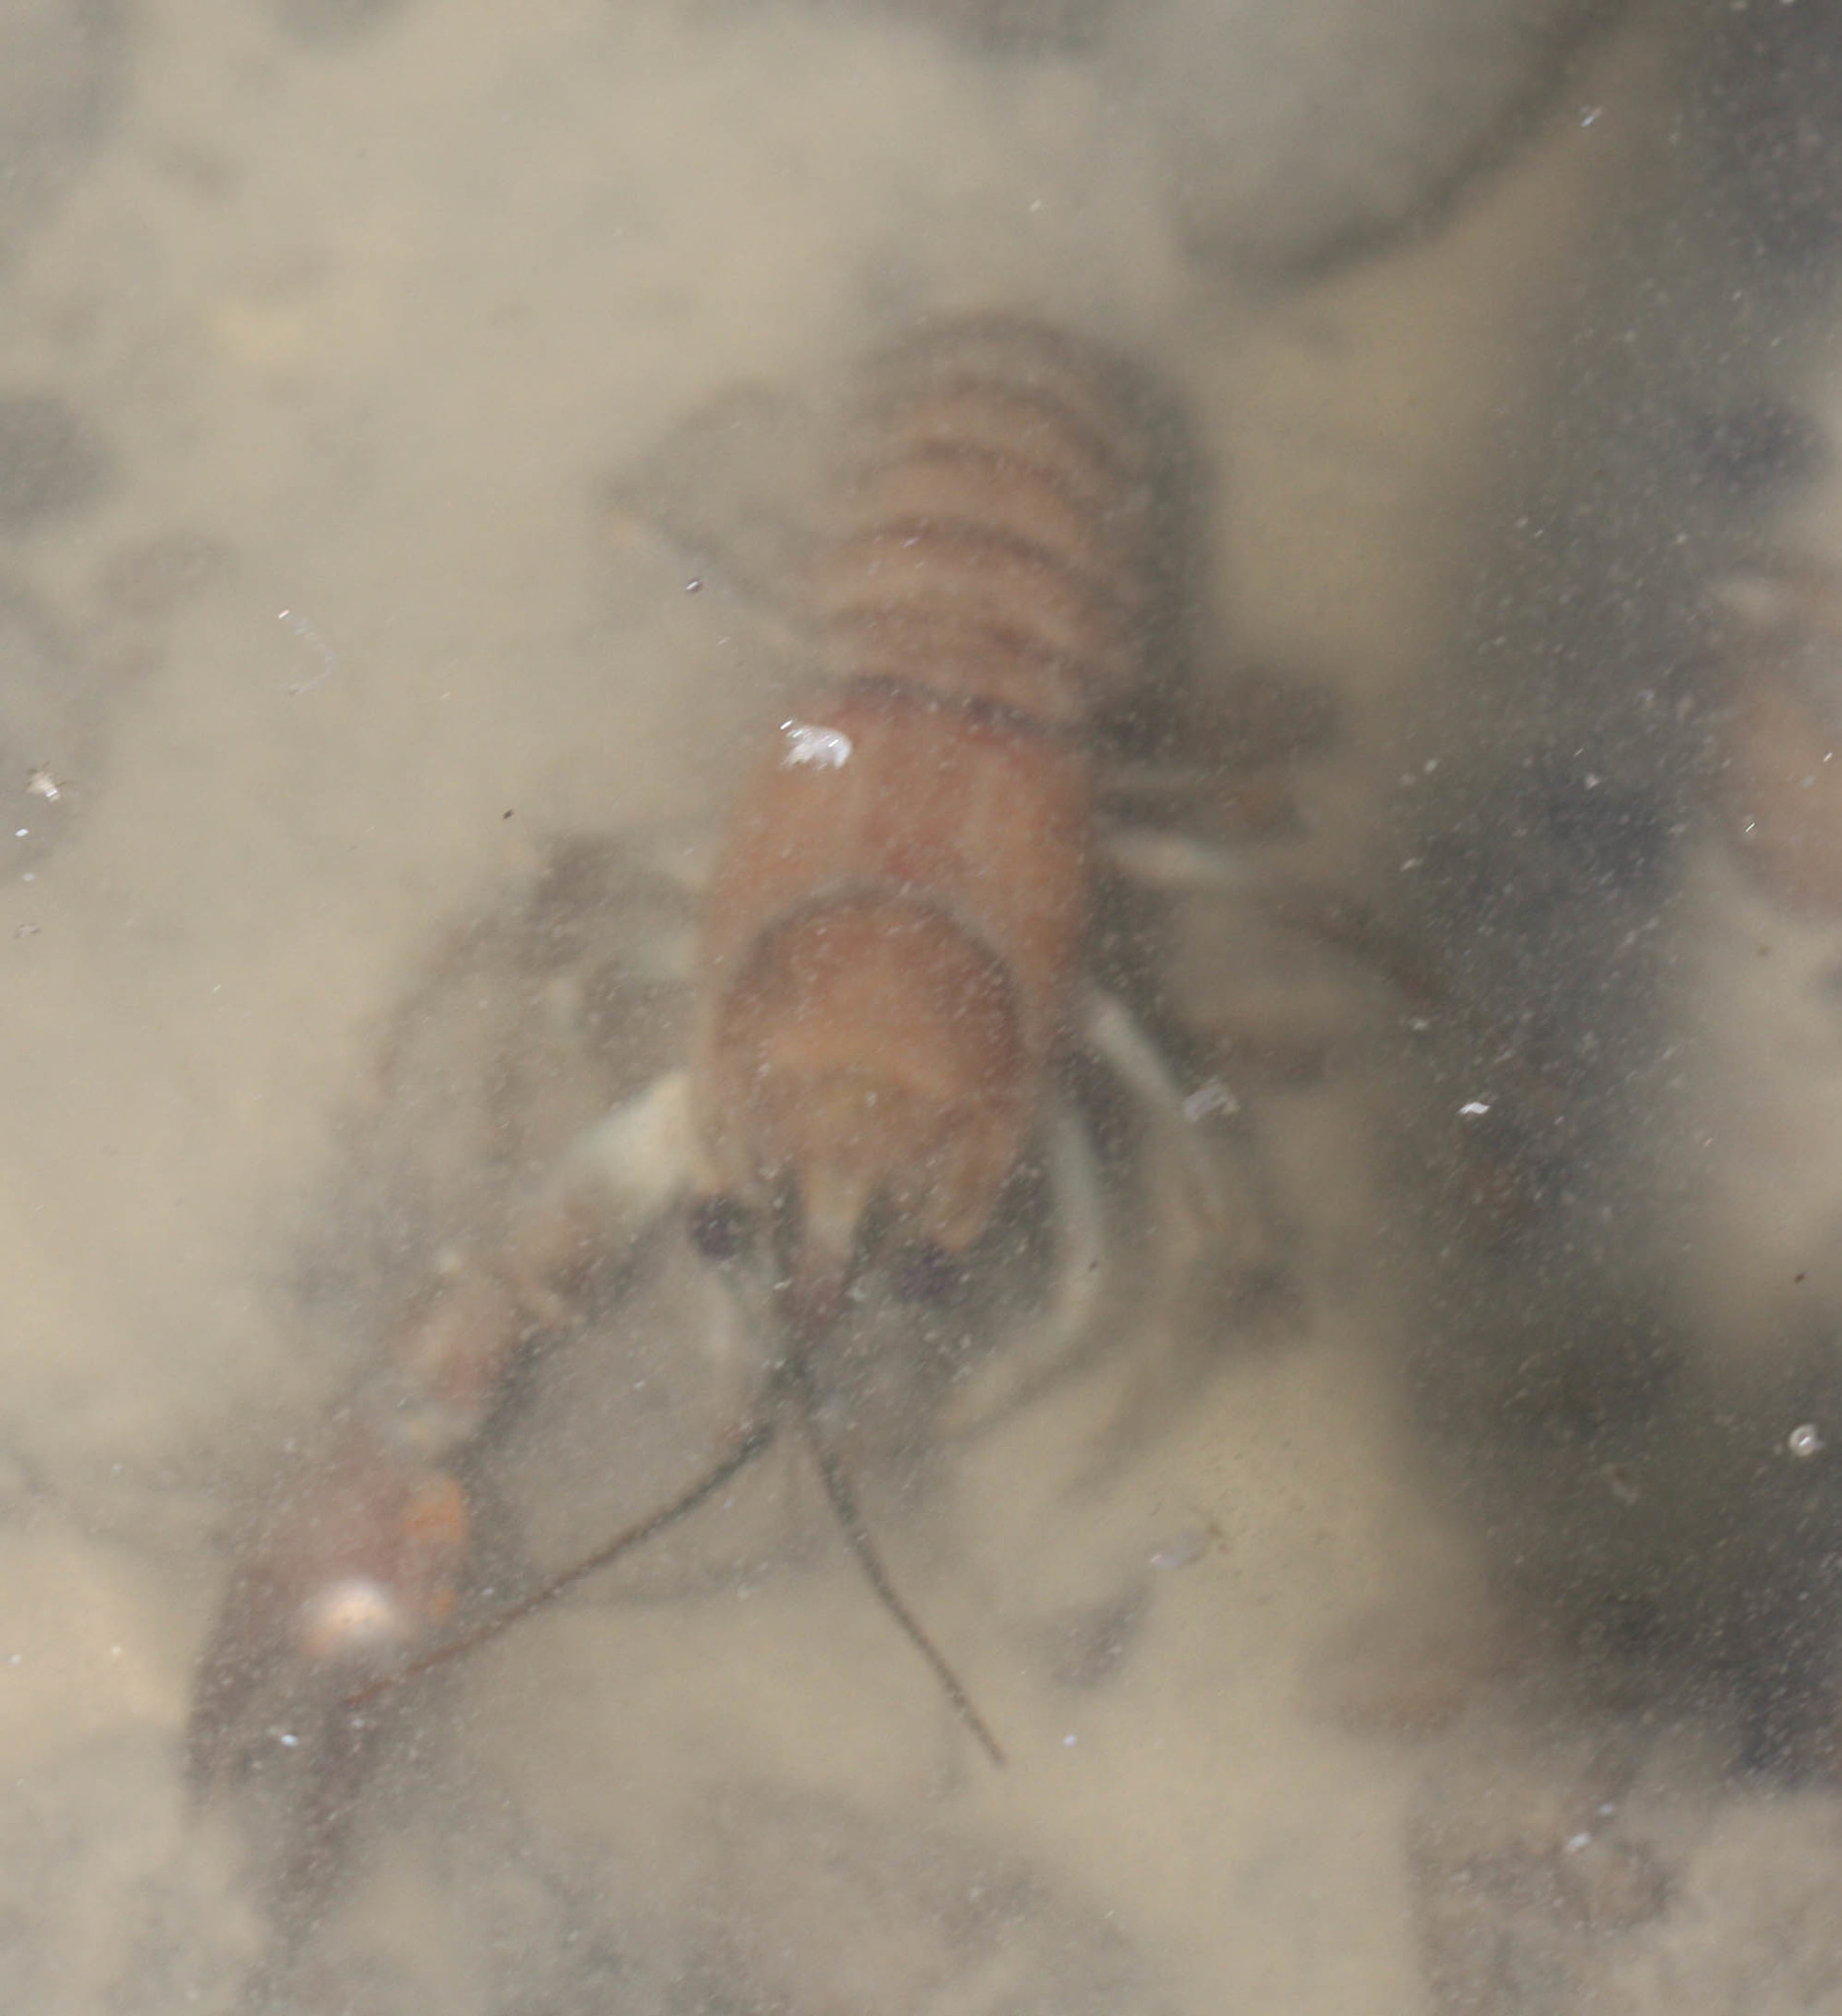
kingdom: Animalia
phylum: Arthropoda
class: Malacostraca
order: Decapoda
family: Astacidae
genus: Pacifastacus
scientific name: Pacifastacus leniusculus
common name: Signal crayfish
